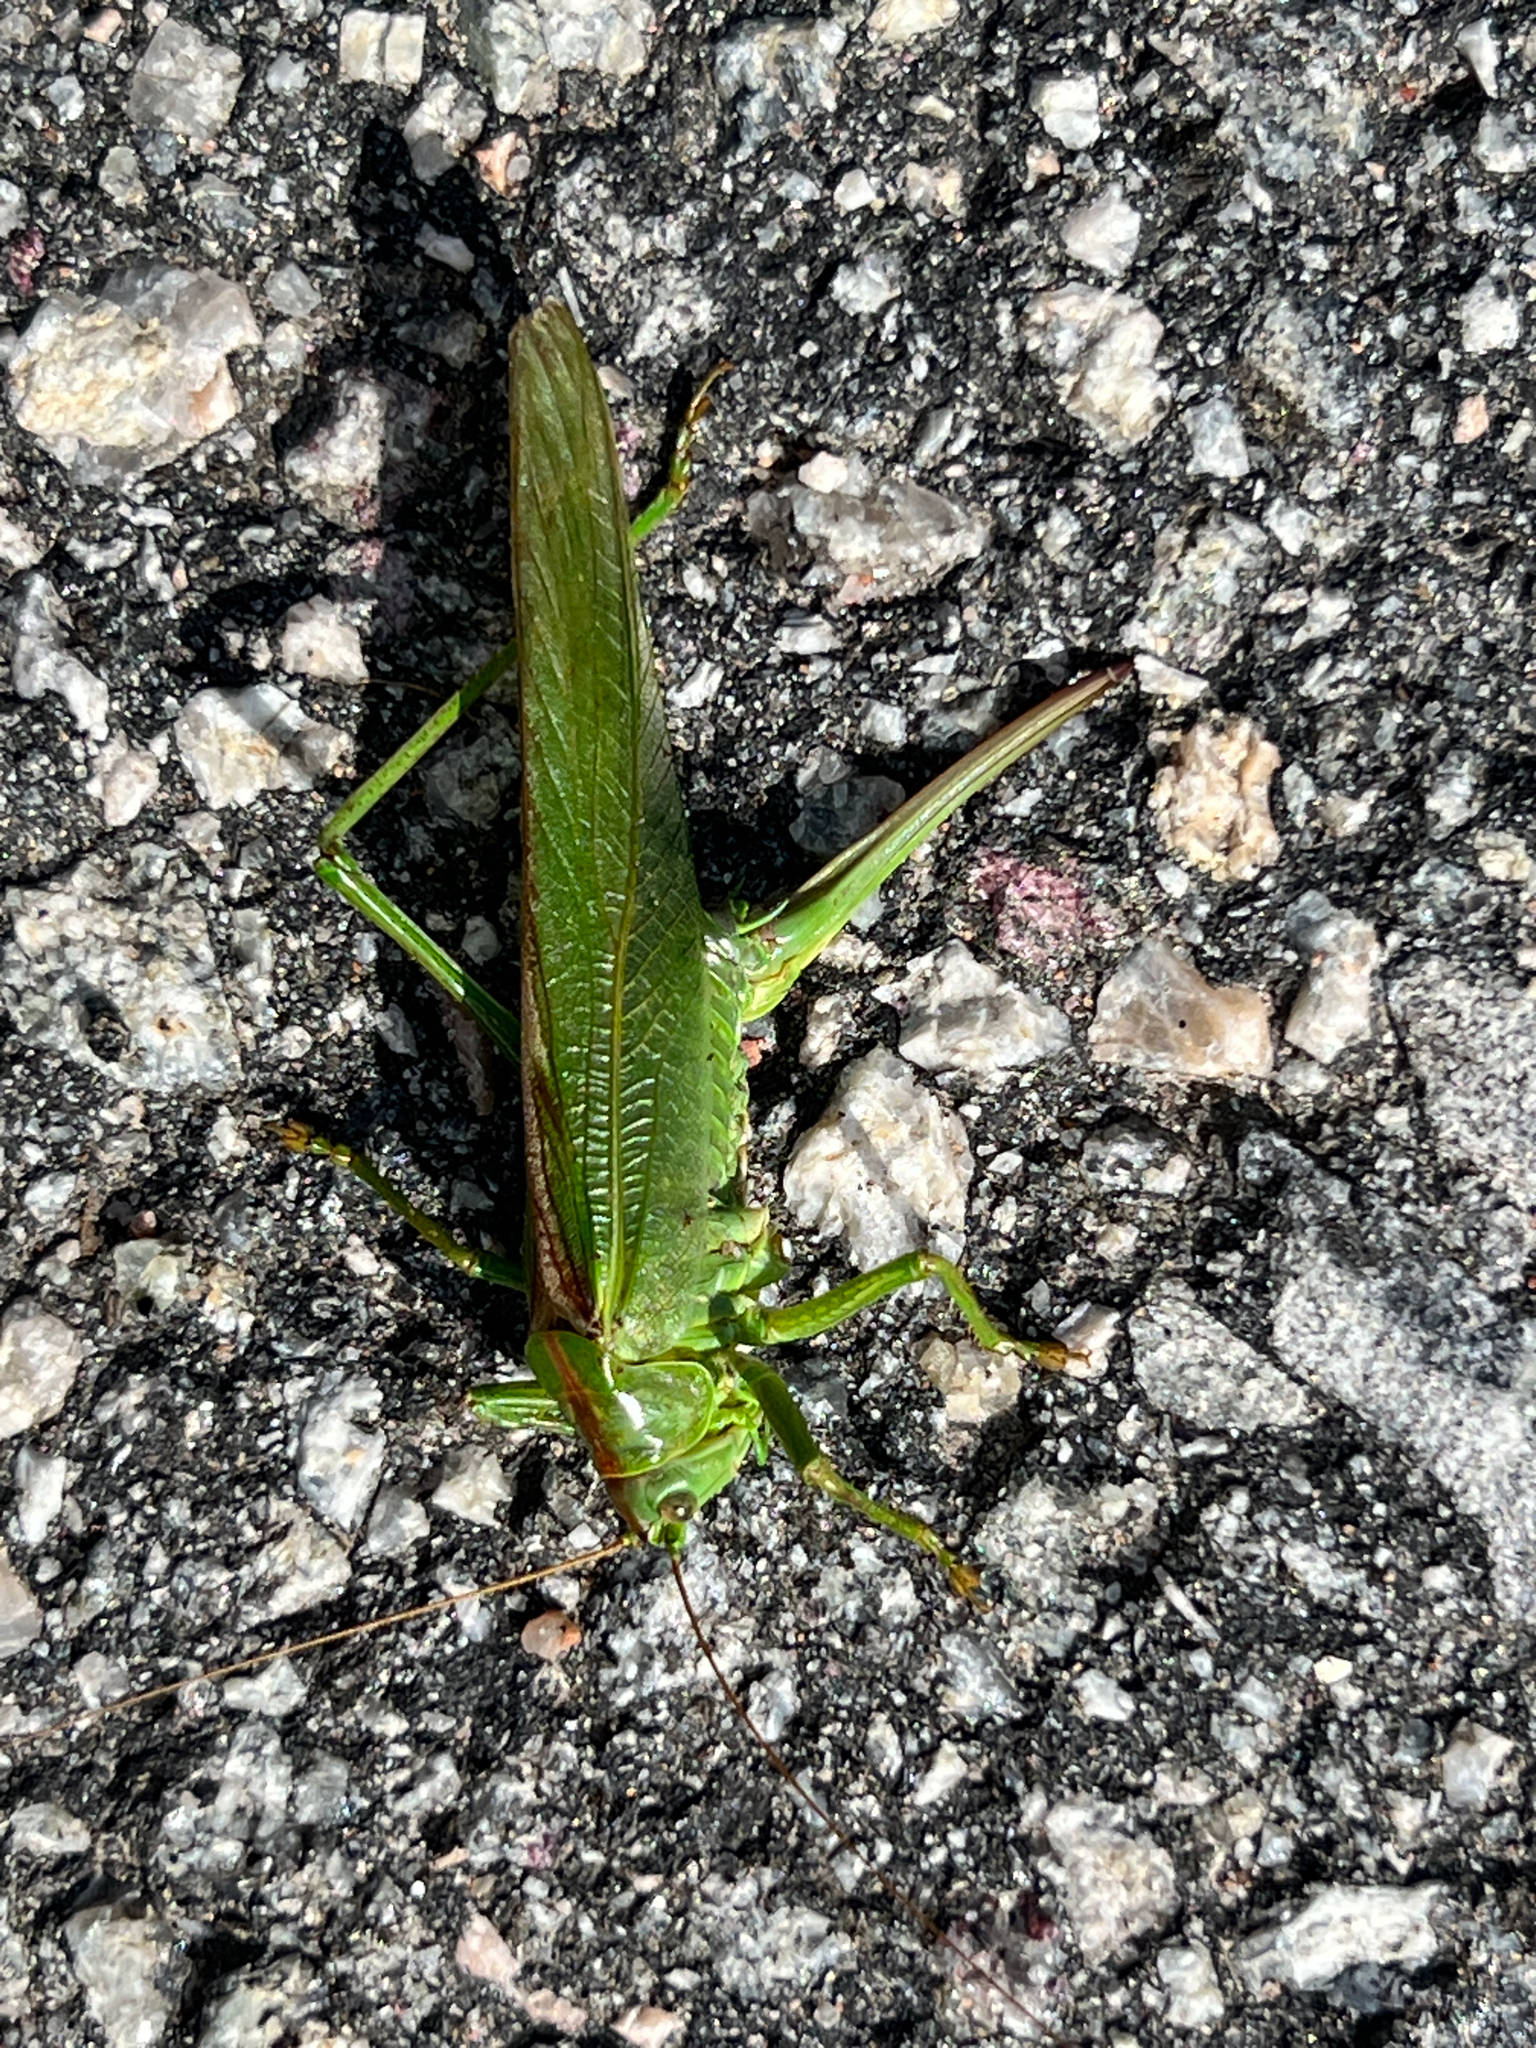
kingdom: Animalia
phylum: Arthropoda
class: Insecta
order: Orthoptera
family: Tettigoniidae
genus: Tettigonia
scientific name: Tettigonia viridissima
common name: Great green bush-cricket
